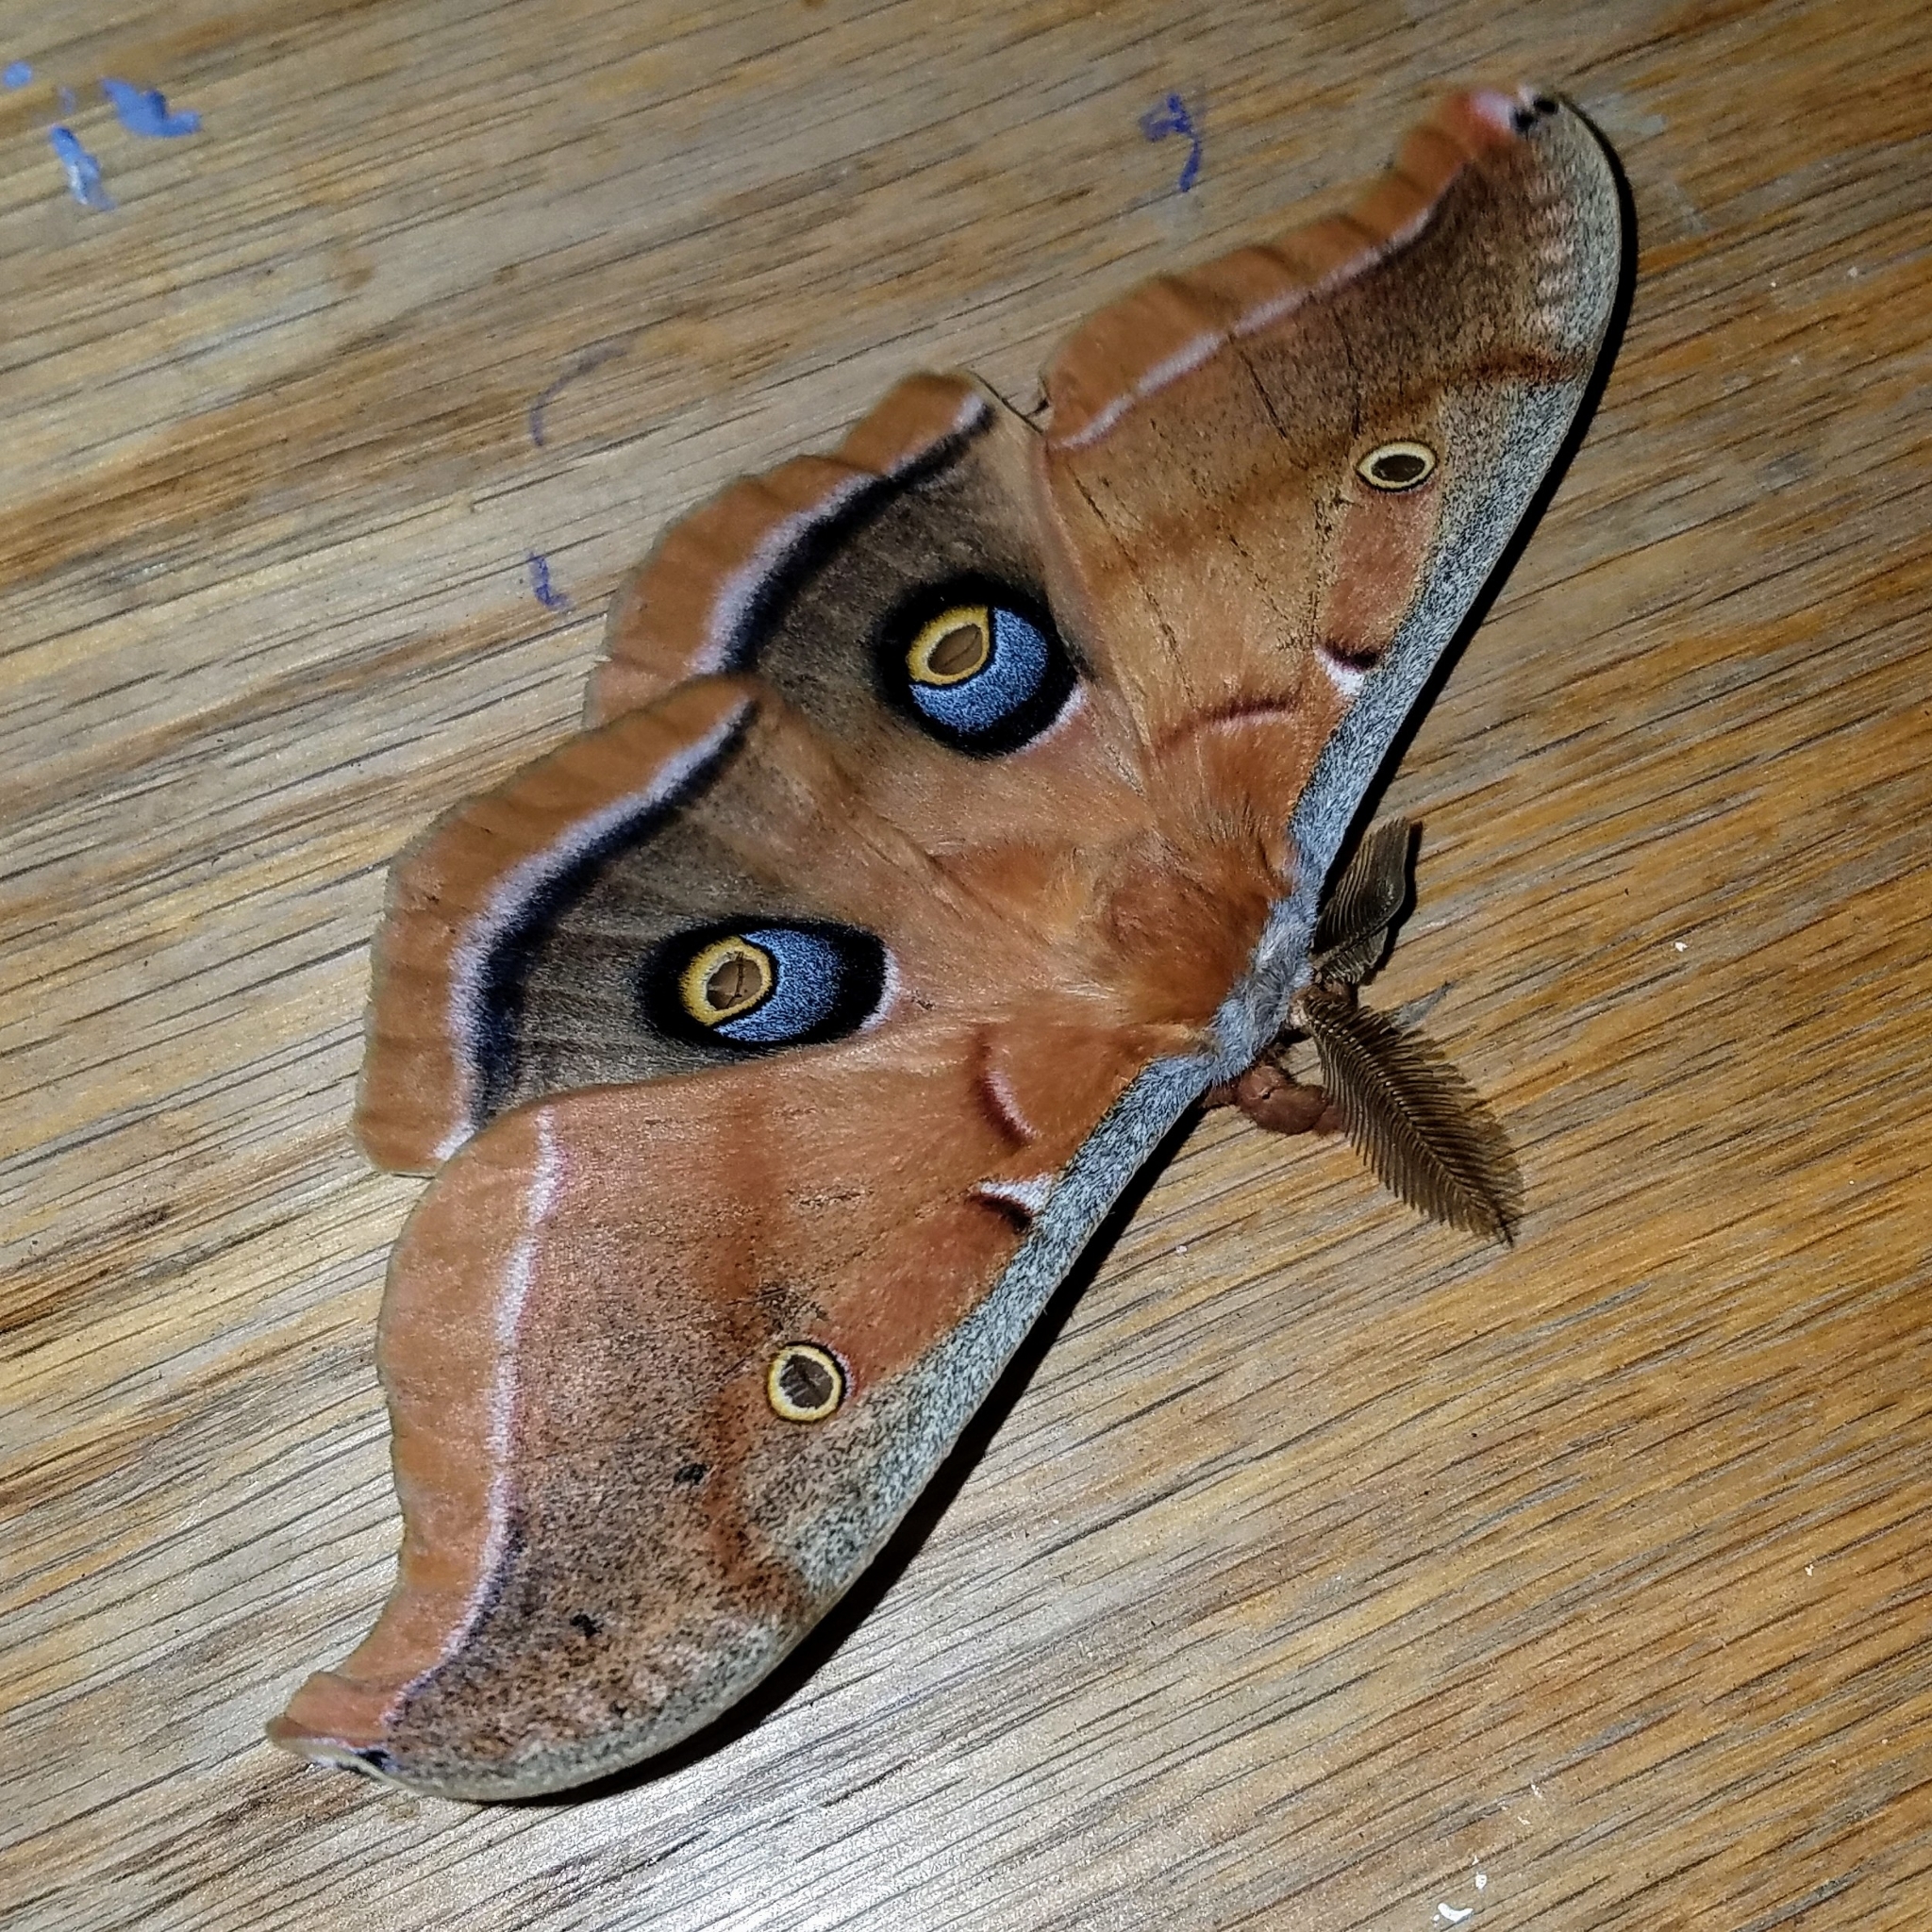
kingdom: Animalia
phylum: Arthropoda
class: Insecta
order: Lepidoptera
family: Saturniidae
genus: Antheraea
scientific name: Antheraea polyphemus
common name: Polyphemus moth
